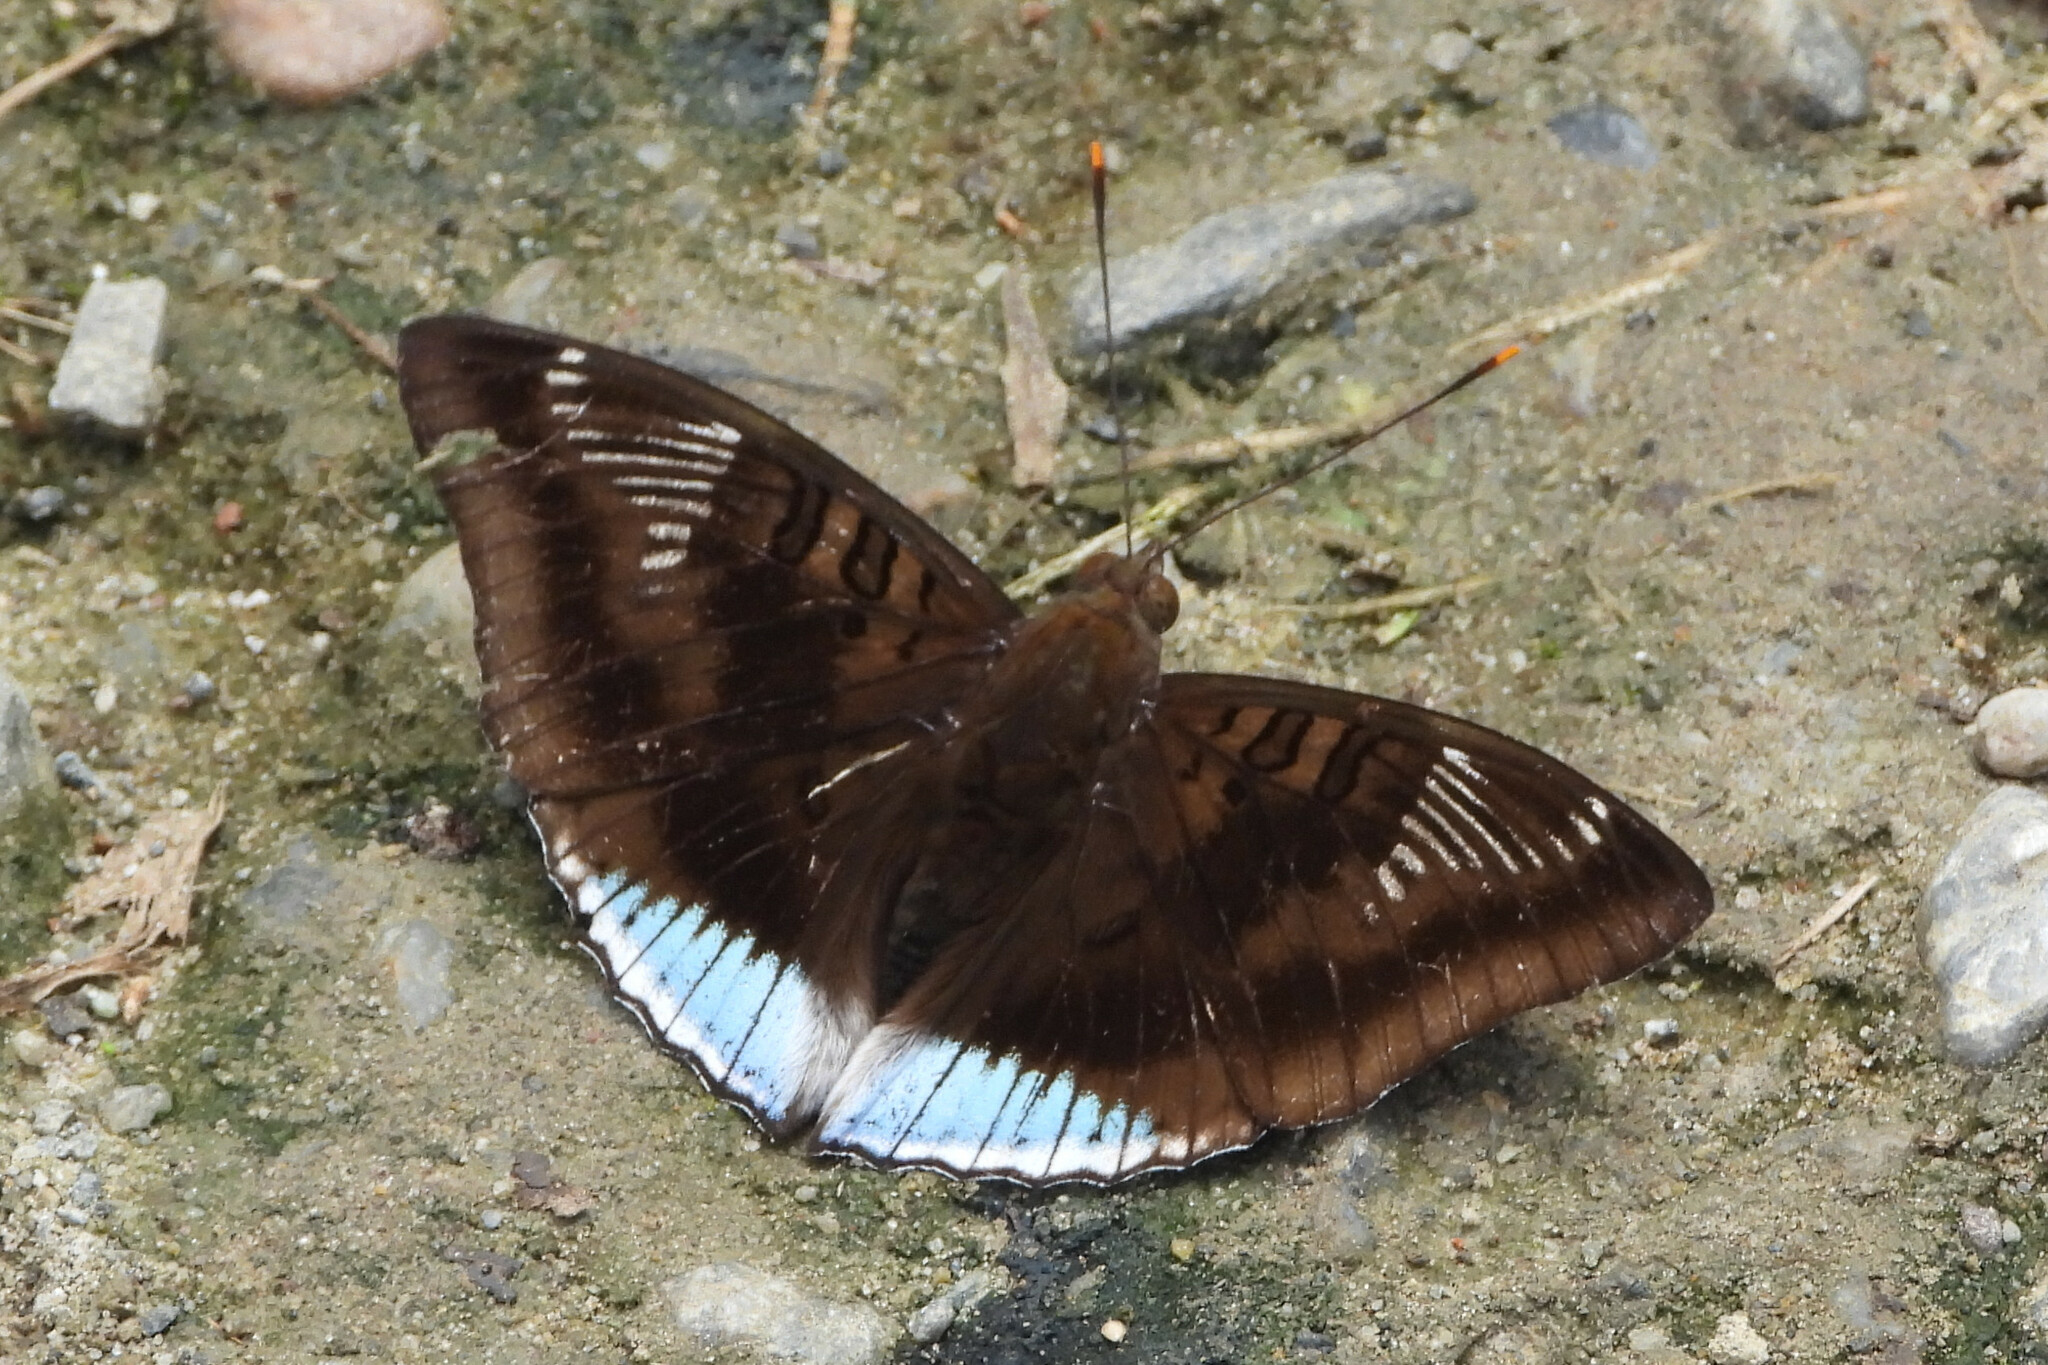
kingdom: Animalia
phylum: Arthropoda
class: Insecta
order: Lepidoptera
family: Nymphalidae
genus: Euthalia
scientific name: Euthalia phemius
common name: White-edged blue baron
